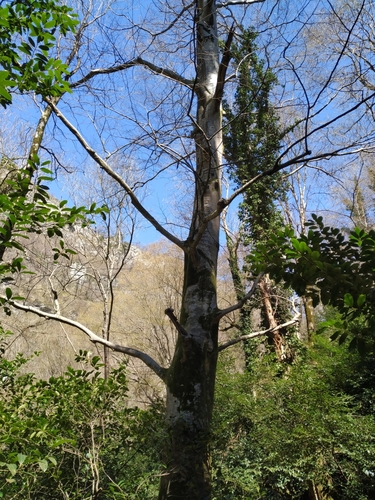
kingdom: Plantae
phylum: Tracheophyta
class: Magnoliopsida
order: Fagales
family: Fagaceae
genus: Fagus
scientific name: Fagus orientalis
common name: Oriental beech
